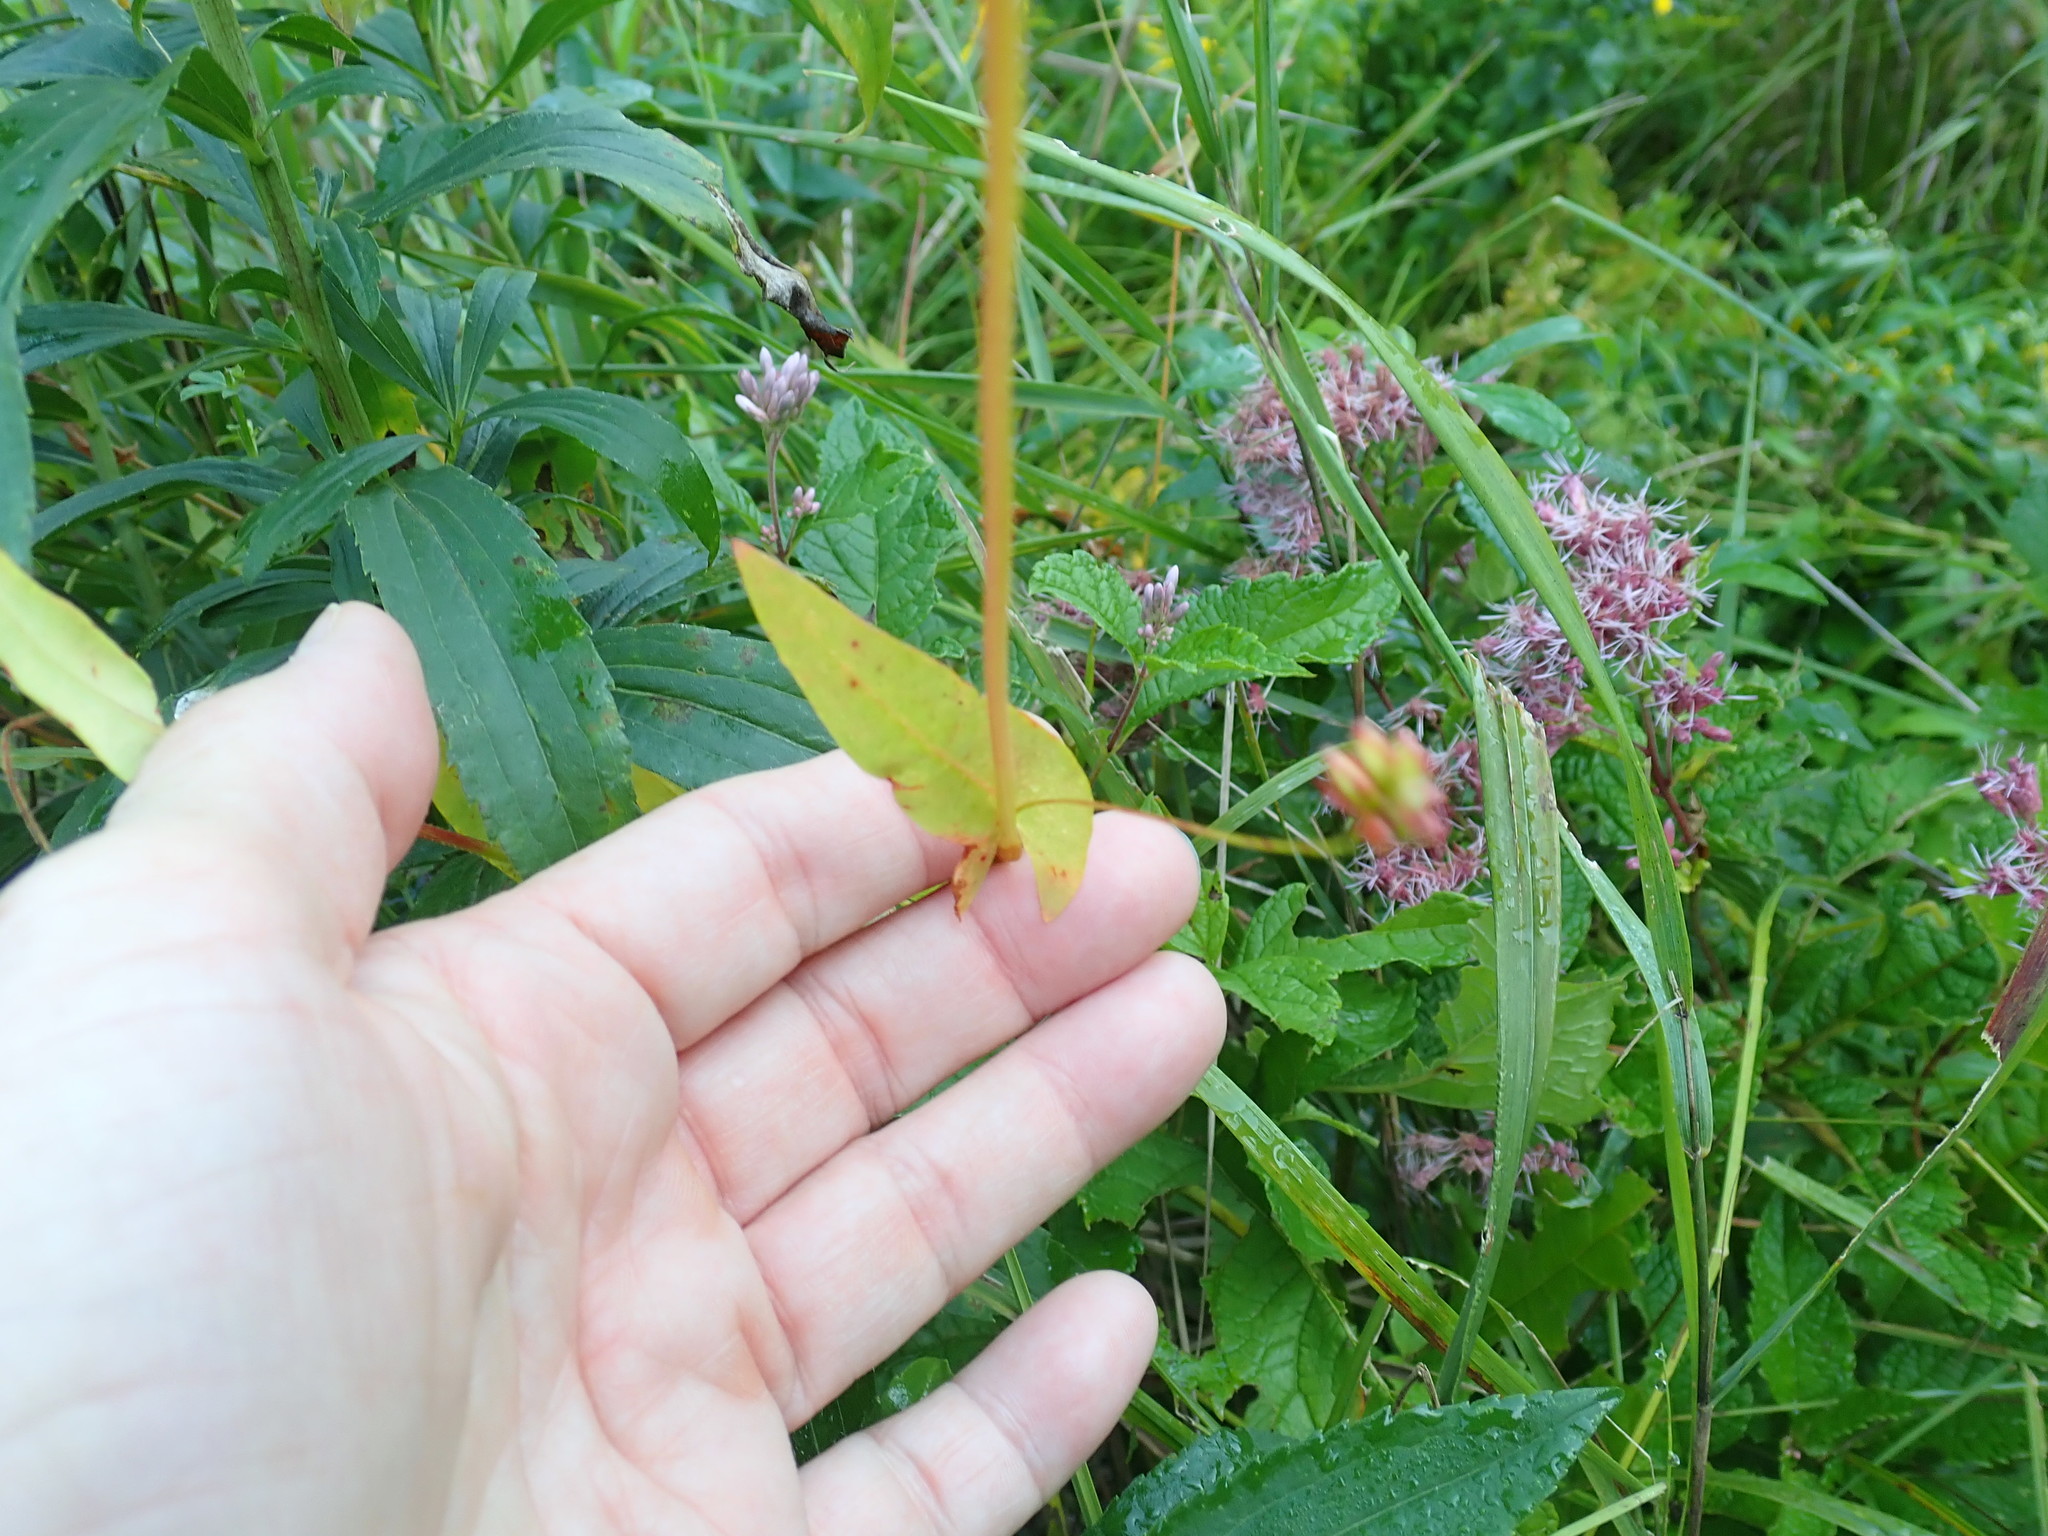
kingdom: Plantae
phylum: Tracheophyta
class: Magnoliopsida
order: Caryophyllales
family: Polygonaceae
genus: Persicaria
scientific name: Persicaria sagittata
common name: American tearthumb
